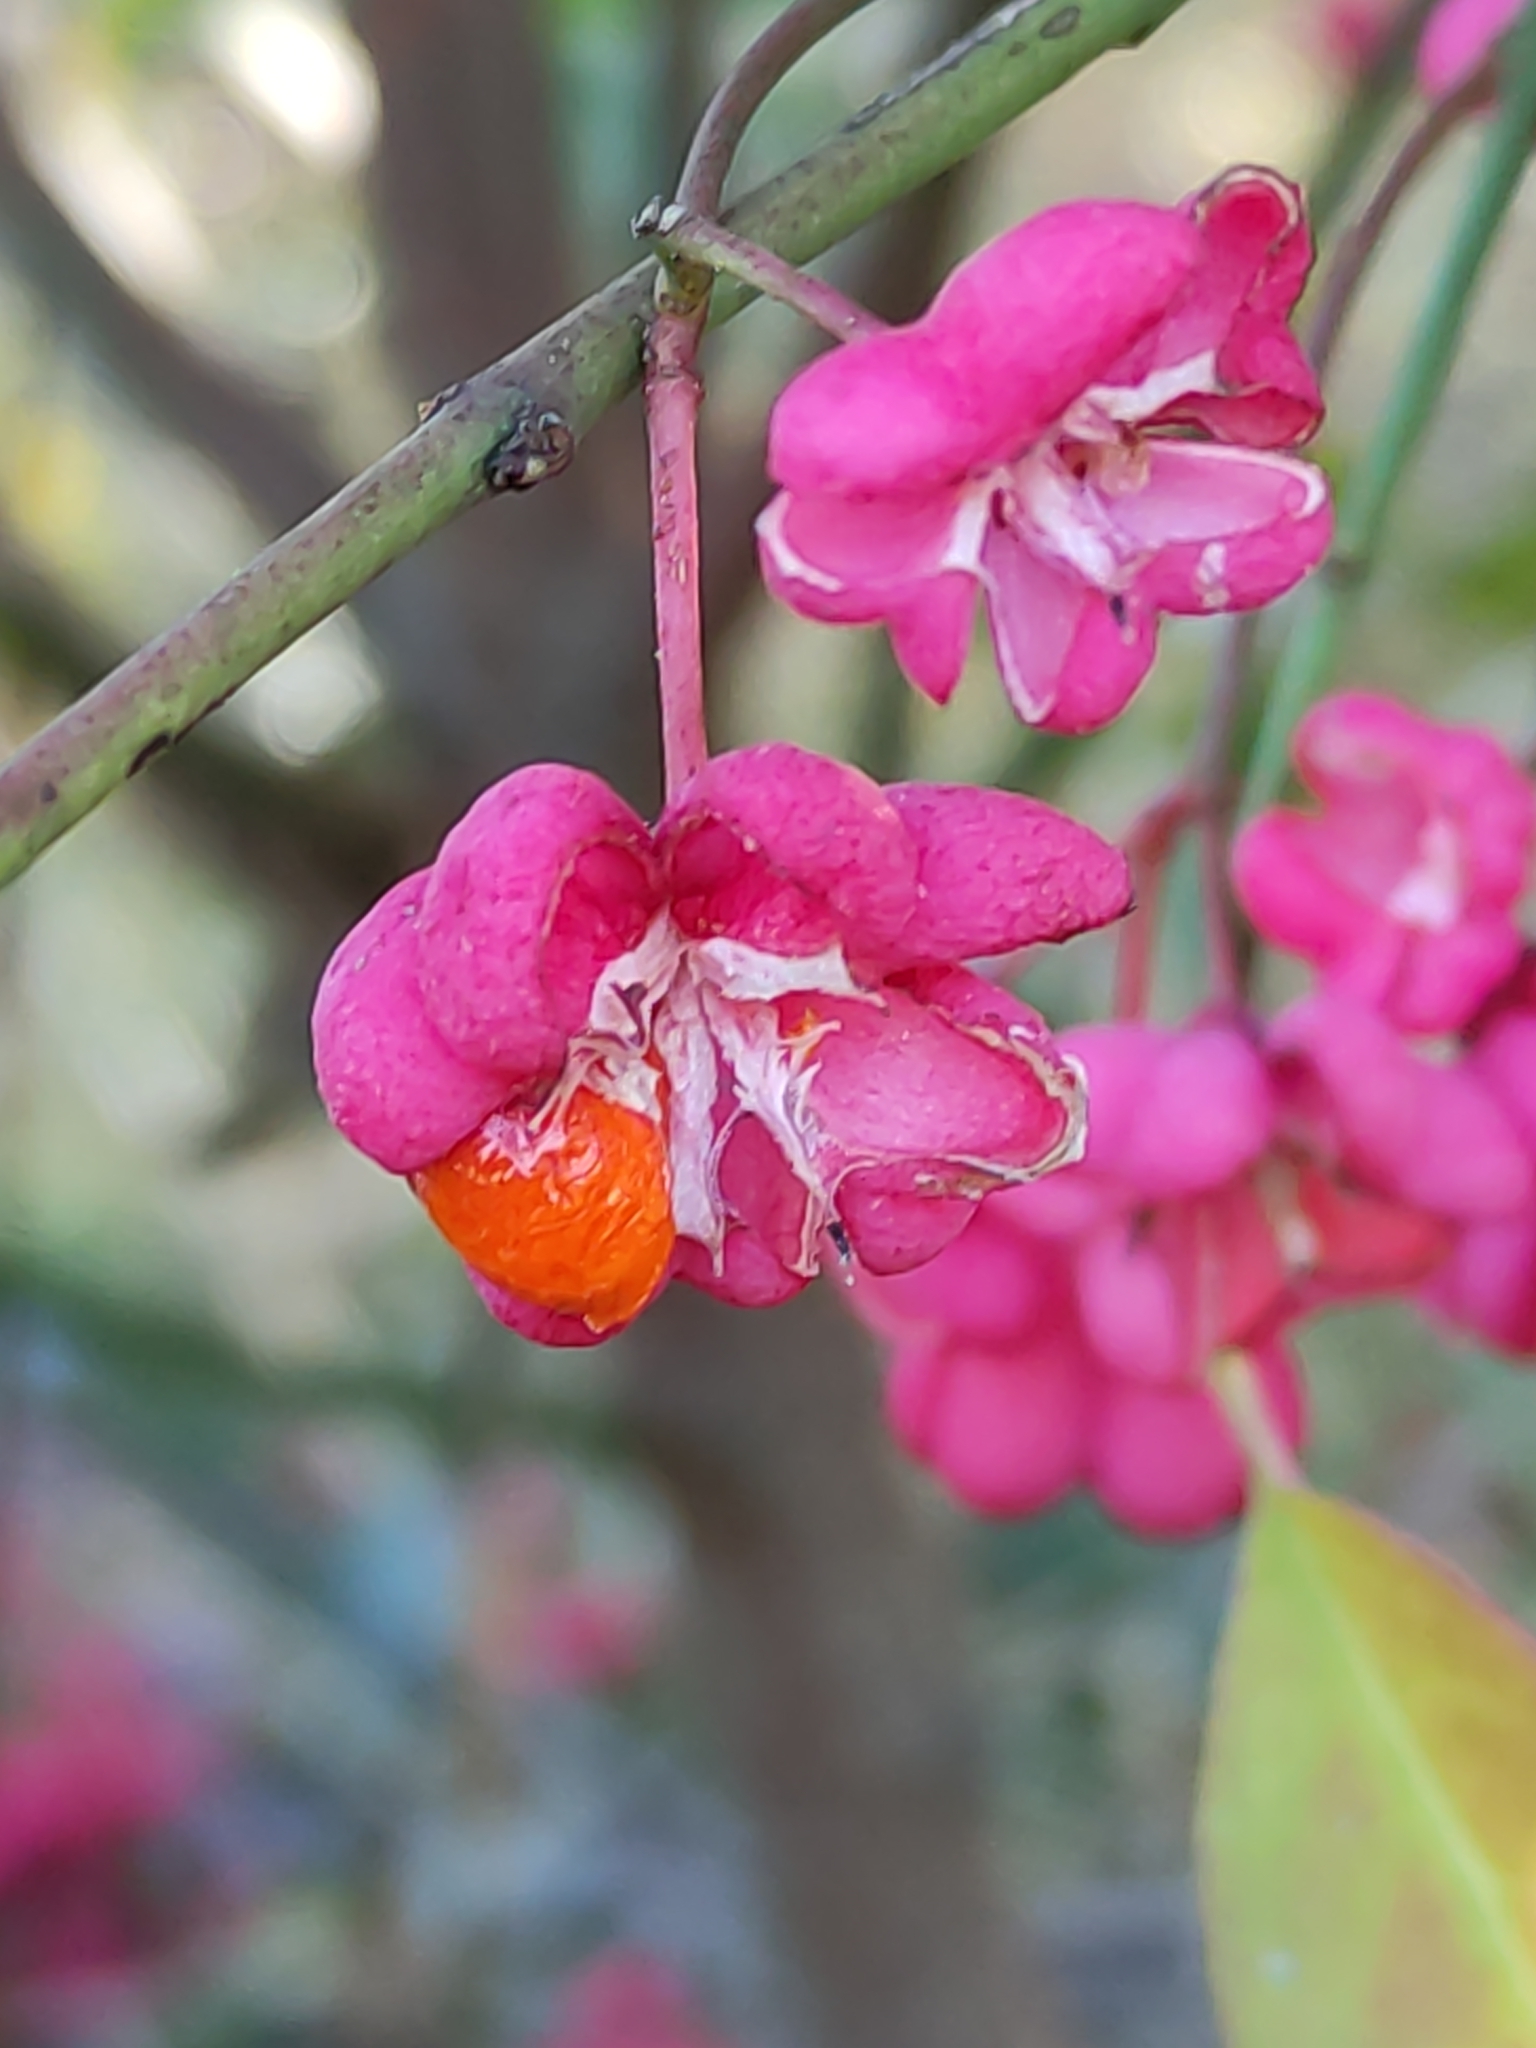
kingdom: Plantae
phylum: Tracheophyta
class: Magnoliopsida
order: Celastrales
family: Celastraceae
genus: Euonymus
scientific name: Euonymus europaeus
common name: Spindle
